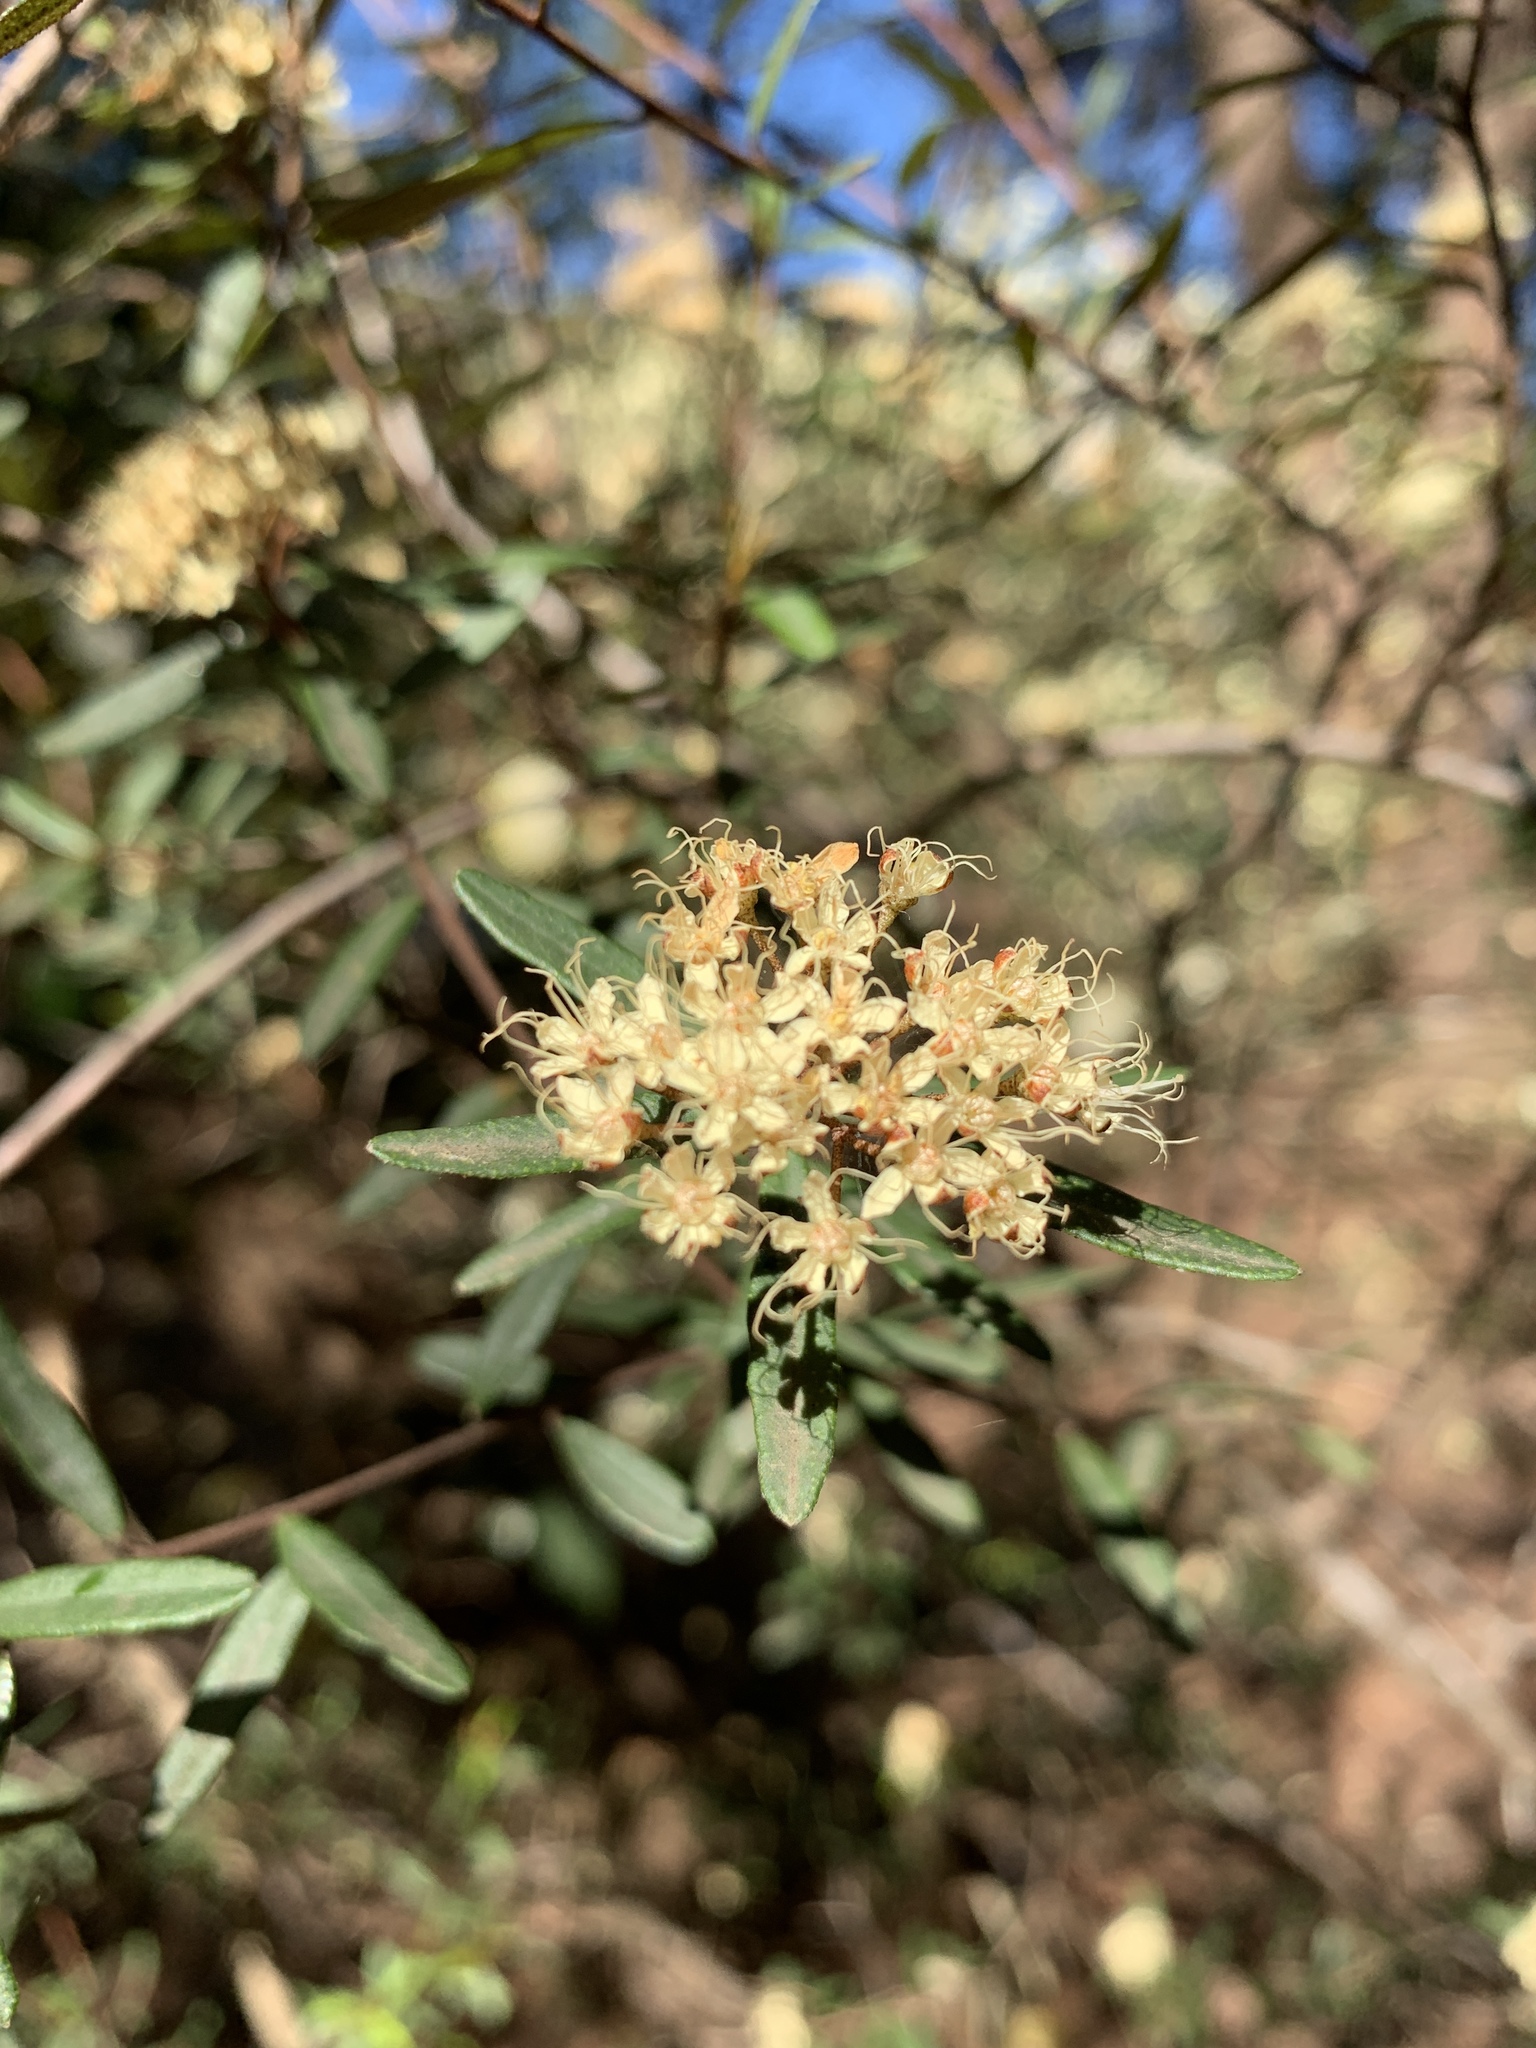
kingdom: Plantae
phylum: Tracheophyta
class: Magnoliopsida
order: Sapindales
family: Rutaceae
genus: Phebalium
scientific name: Phebalium squamulosum
